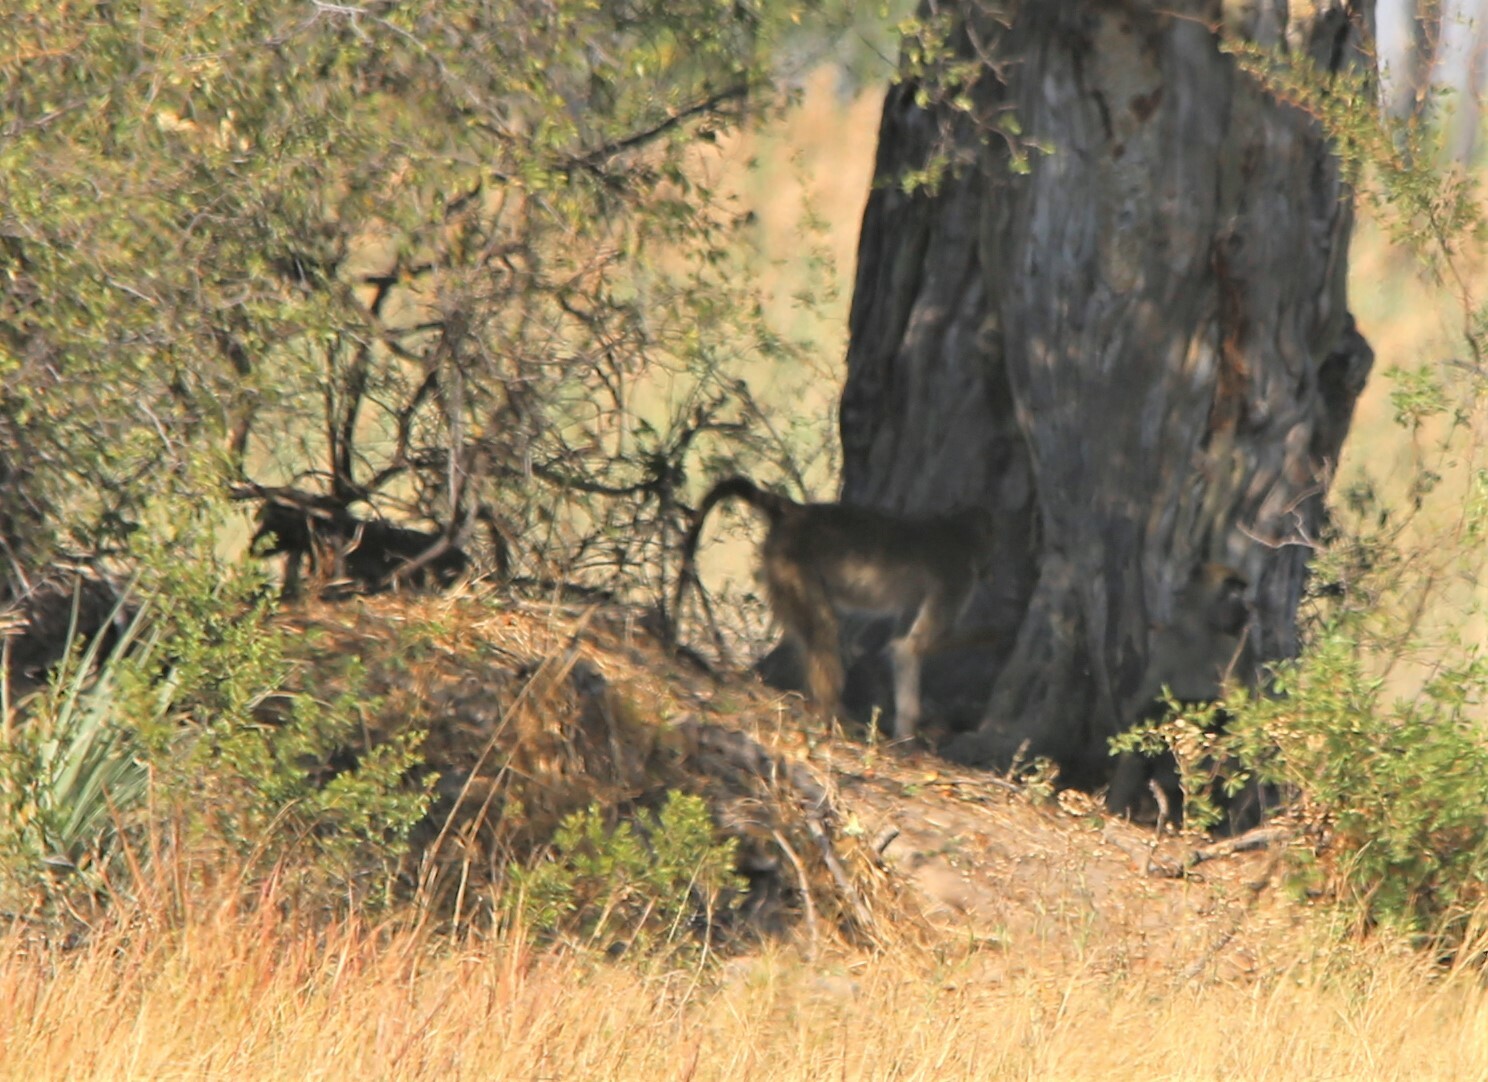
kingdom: Animalia
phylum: Chordata
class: Mammalia
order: Primates
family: Cercopithecidae
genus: Papio
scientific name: Papio ursinus
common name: Chacma baboon
